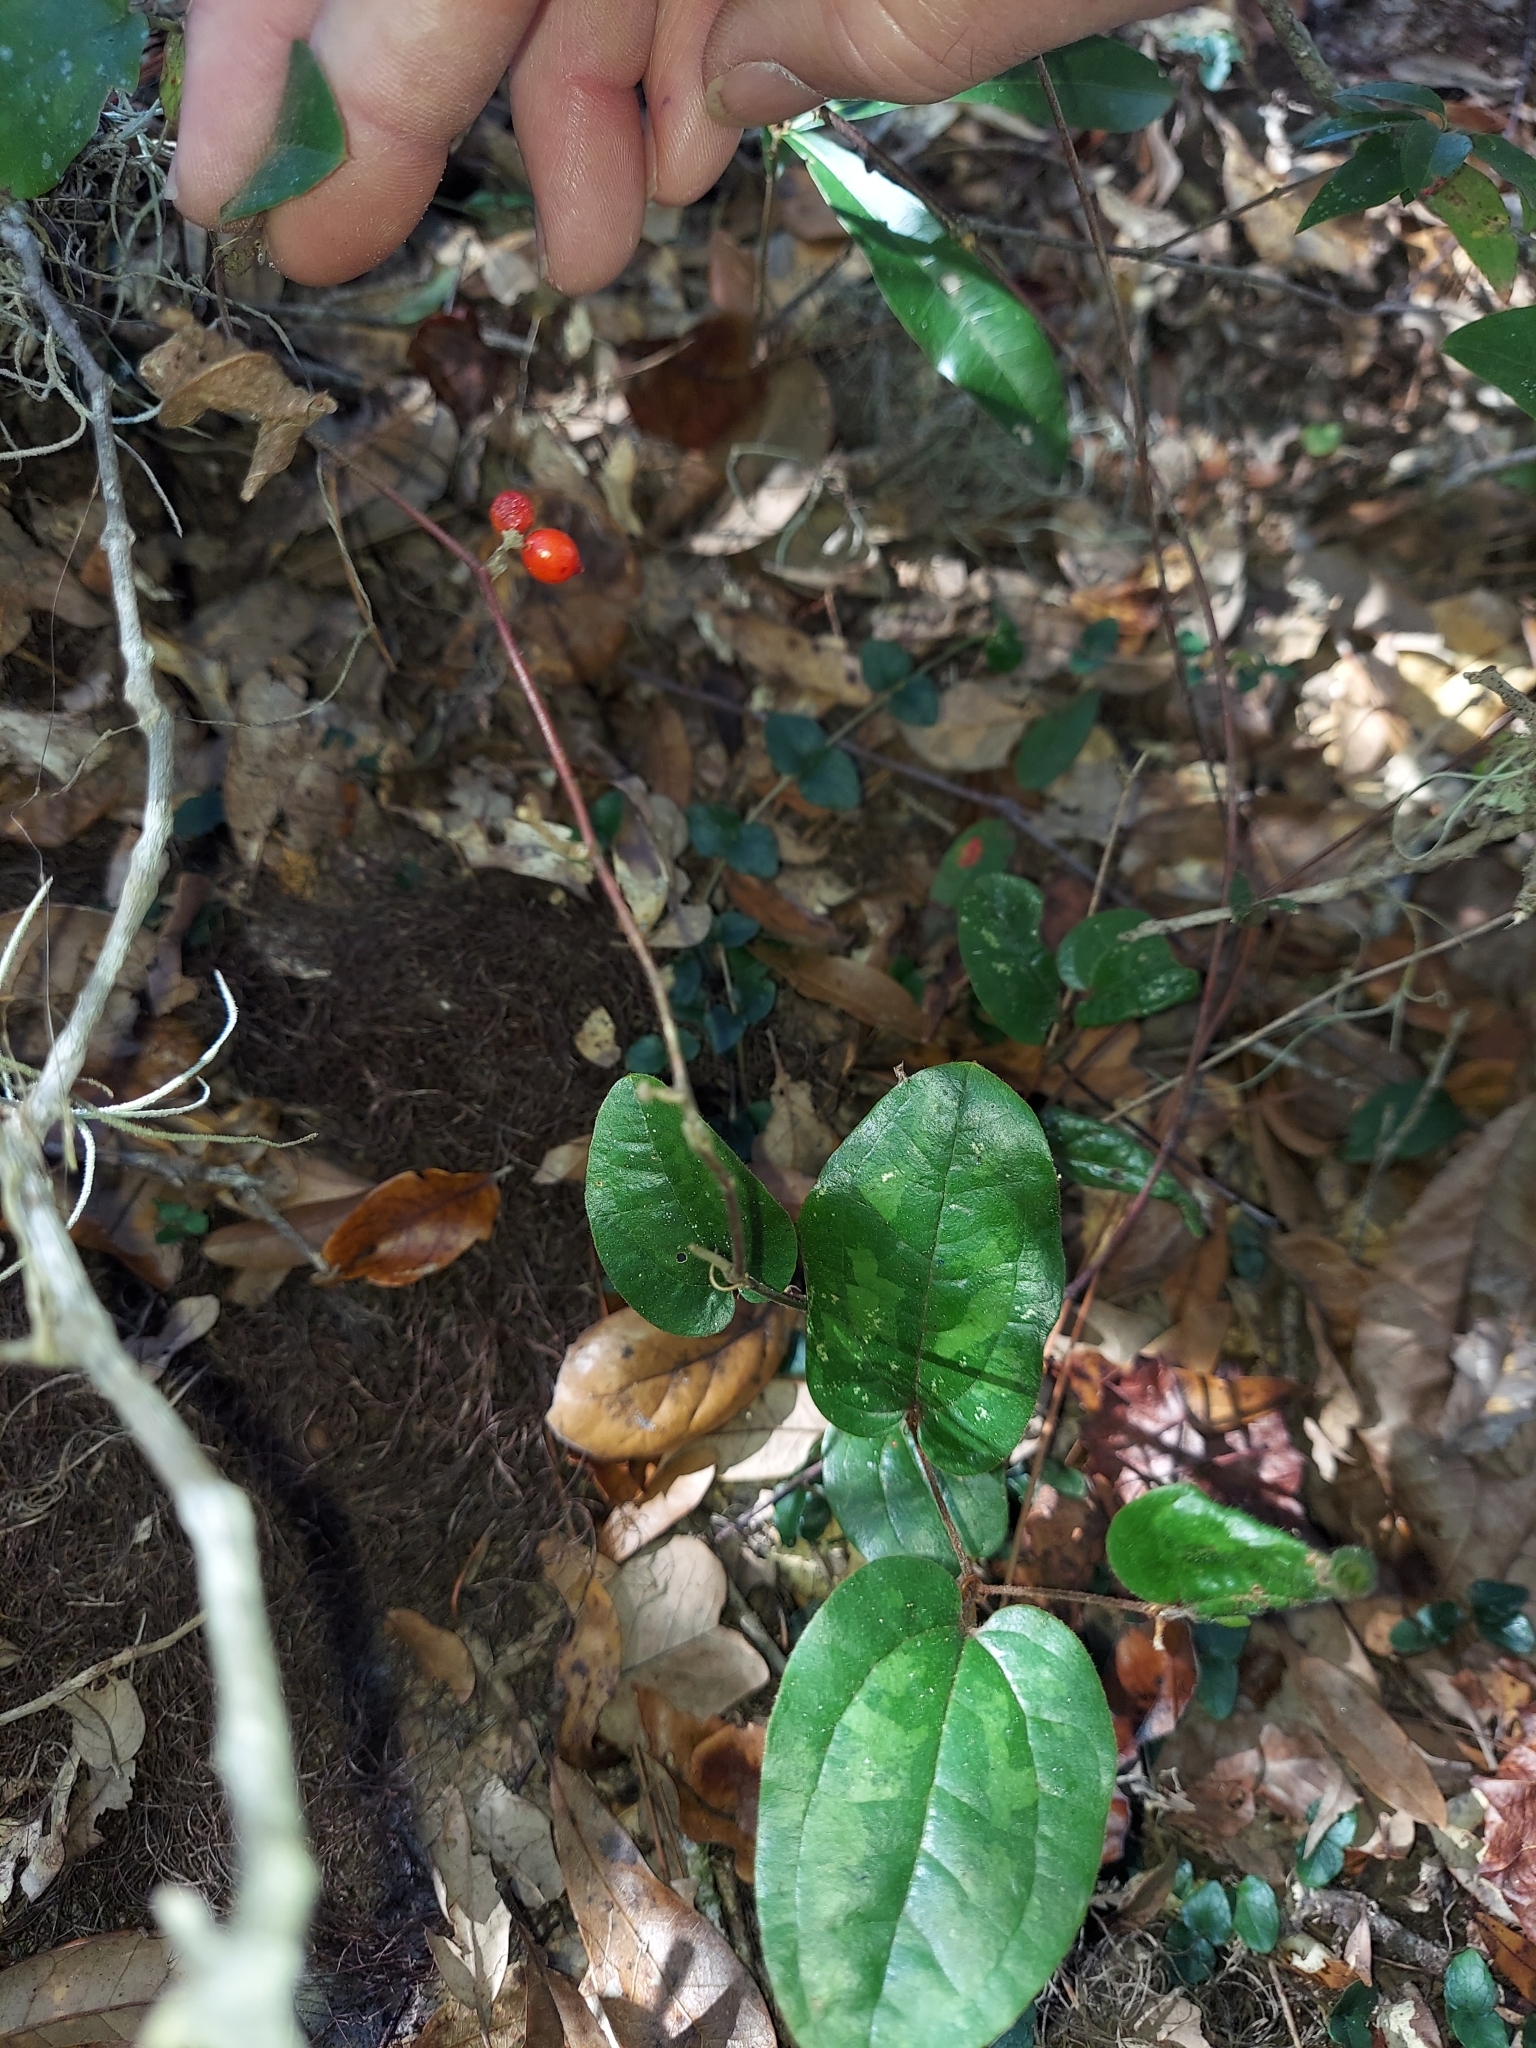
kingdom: Plantae
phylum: Tracheophyta
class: Liliopsida
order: Liliales
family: Smilacaceae
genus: Smilax
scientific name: Smilax pumila
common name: Sarsaparilla-vine
